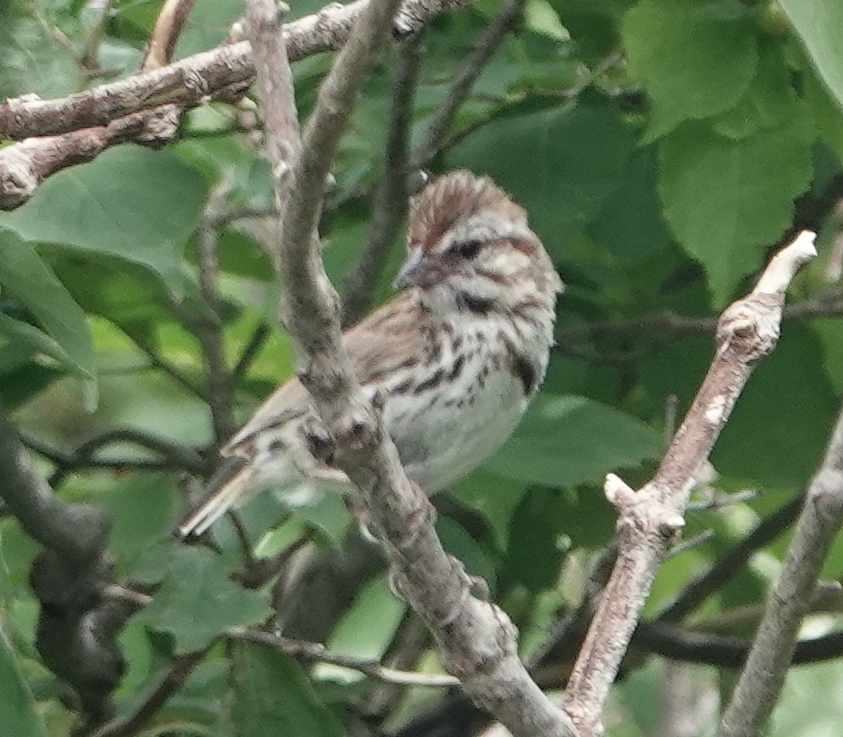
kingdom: Animalia
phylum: Chordata
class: Aves
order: Passeriformes
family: Passerellidae
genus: Melospiza
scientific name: Melospiza melodia
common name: Song sparrow
